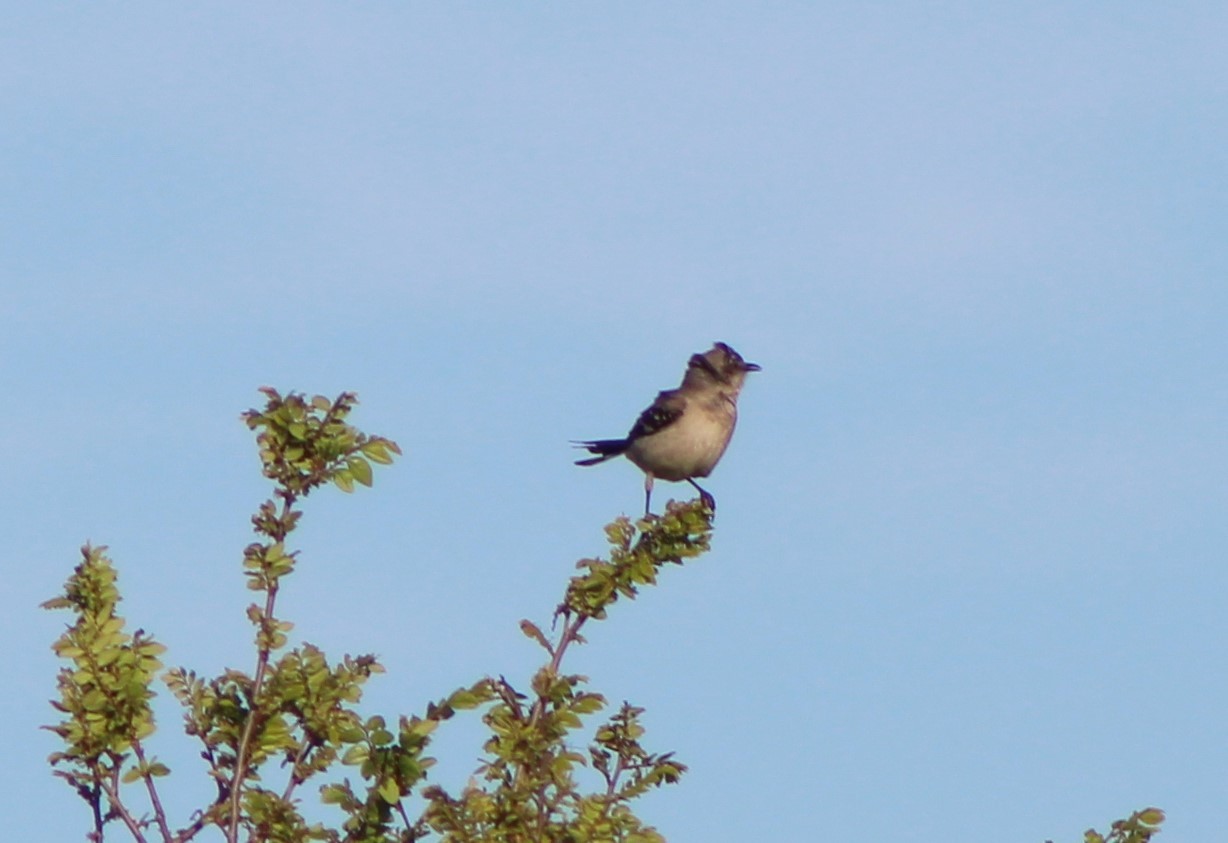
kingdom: Animalia
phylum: Chordata
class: Aves
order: Passeriformes
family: Mimidae
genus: Mimus
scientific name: Mimus polyglottos
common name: Northern mockingbird
